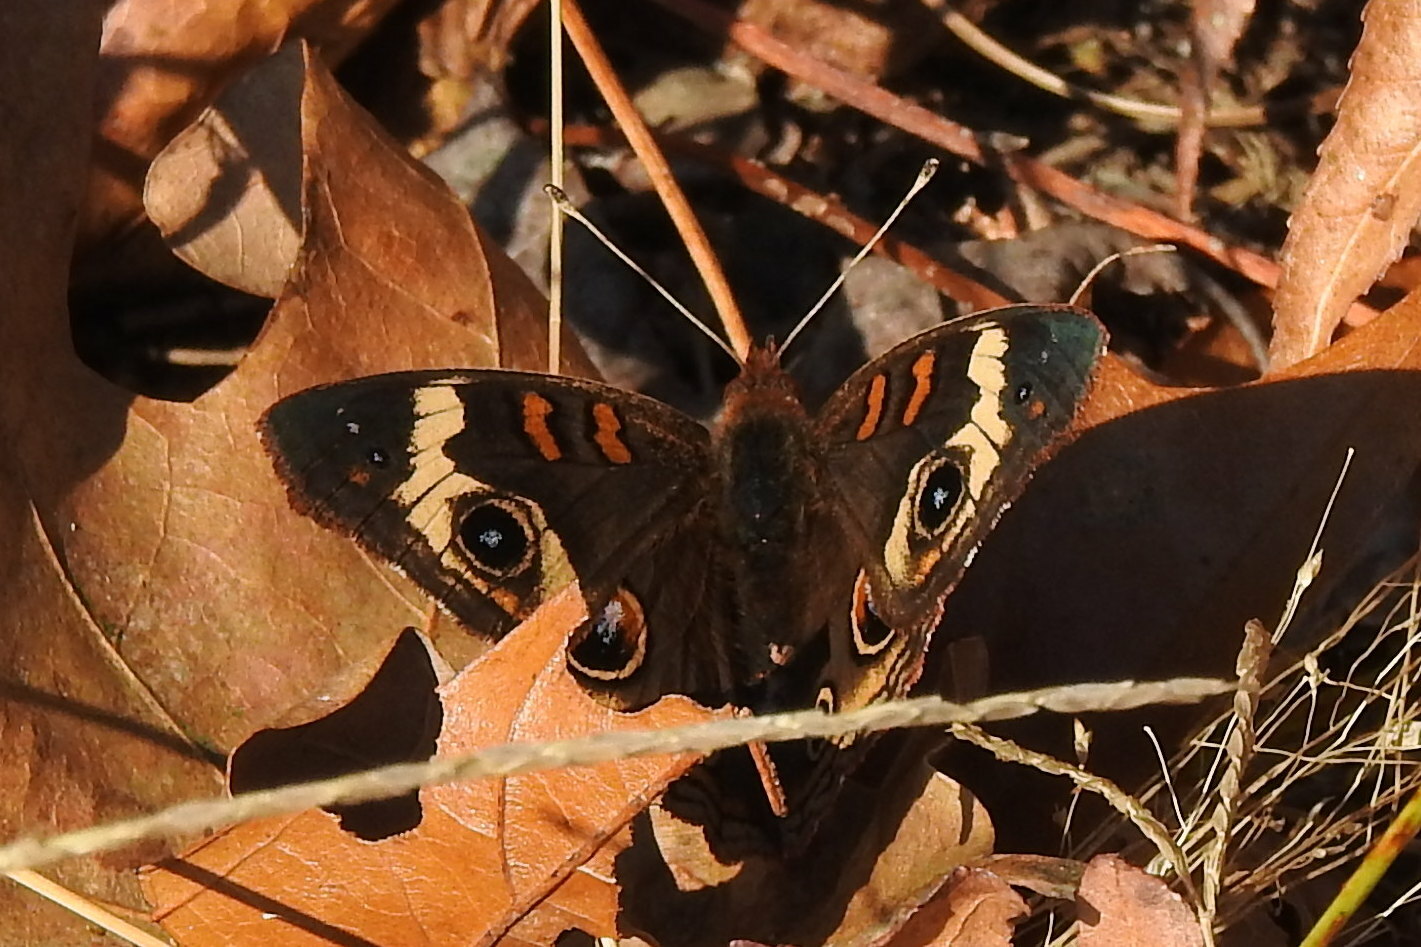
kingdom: Animalia
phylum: Arthropoda
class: Insecta
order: Lepidoptera
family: Nymphalidae
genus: Junonia
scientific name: Junonia coenia
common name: Common buckeye
